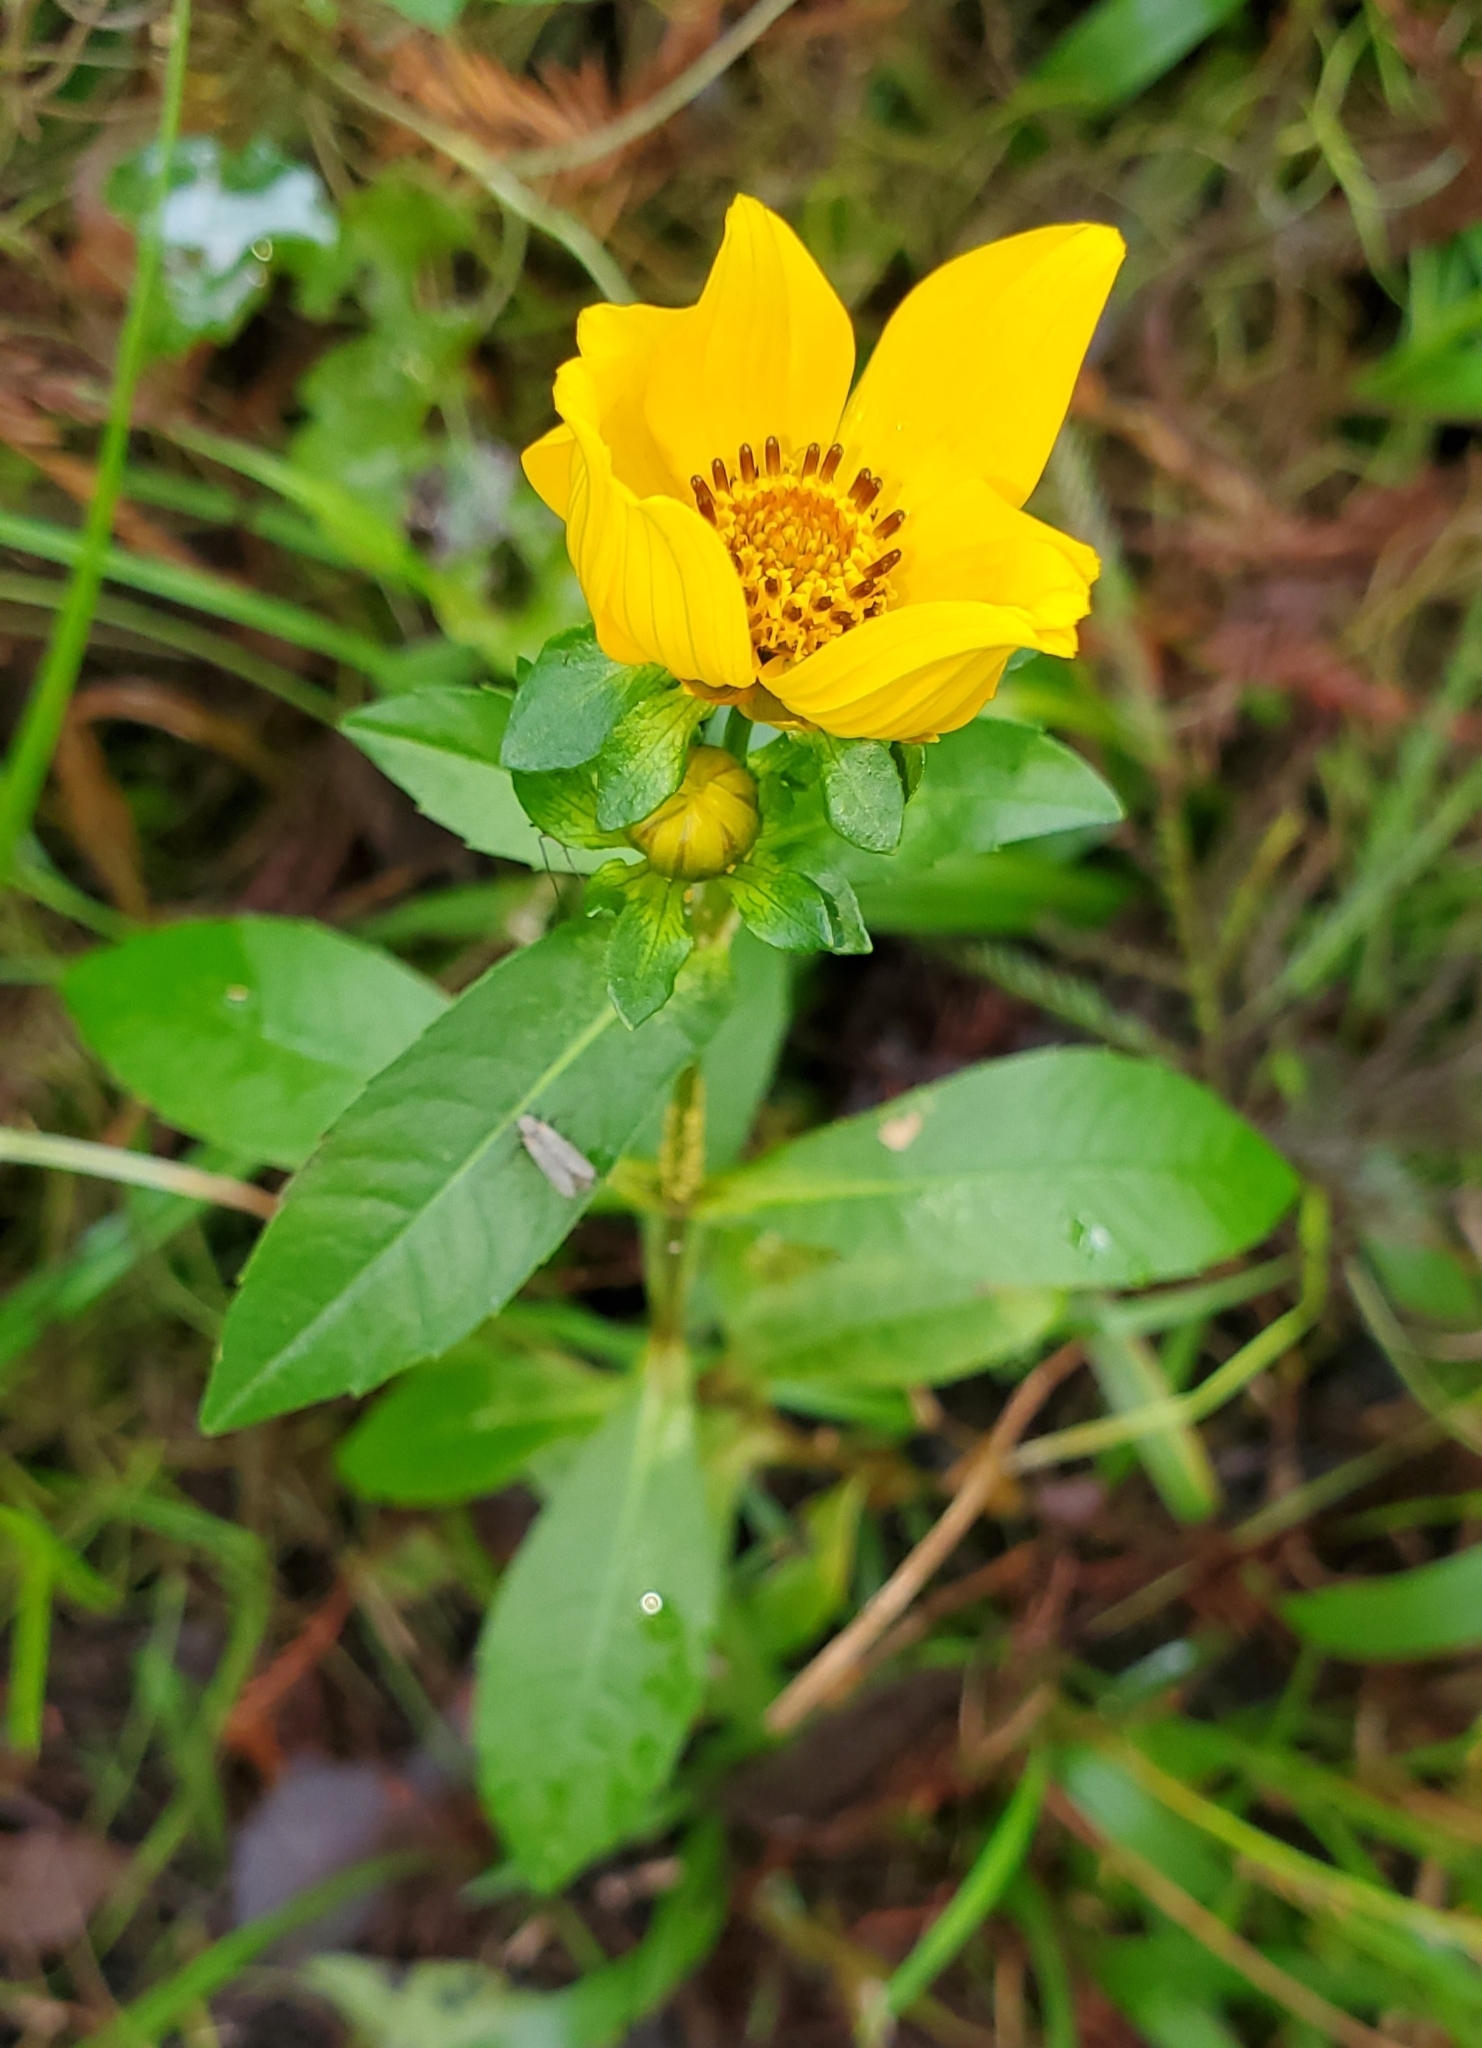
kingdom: Plantae
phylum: Tracheophyta
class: Magnoliopsida
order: Asterales
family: Asteraceae
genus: Bidens
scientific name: Bidens laevis
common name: Larger bur-marigold
